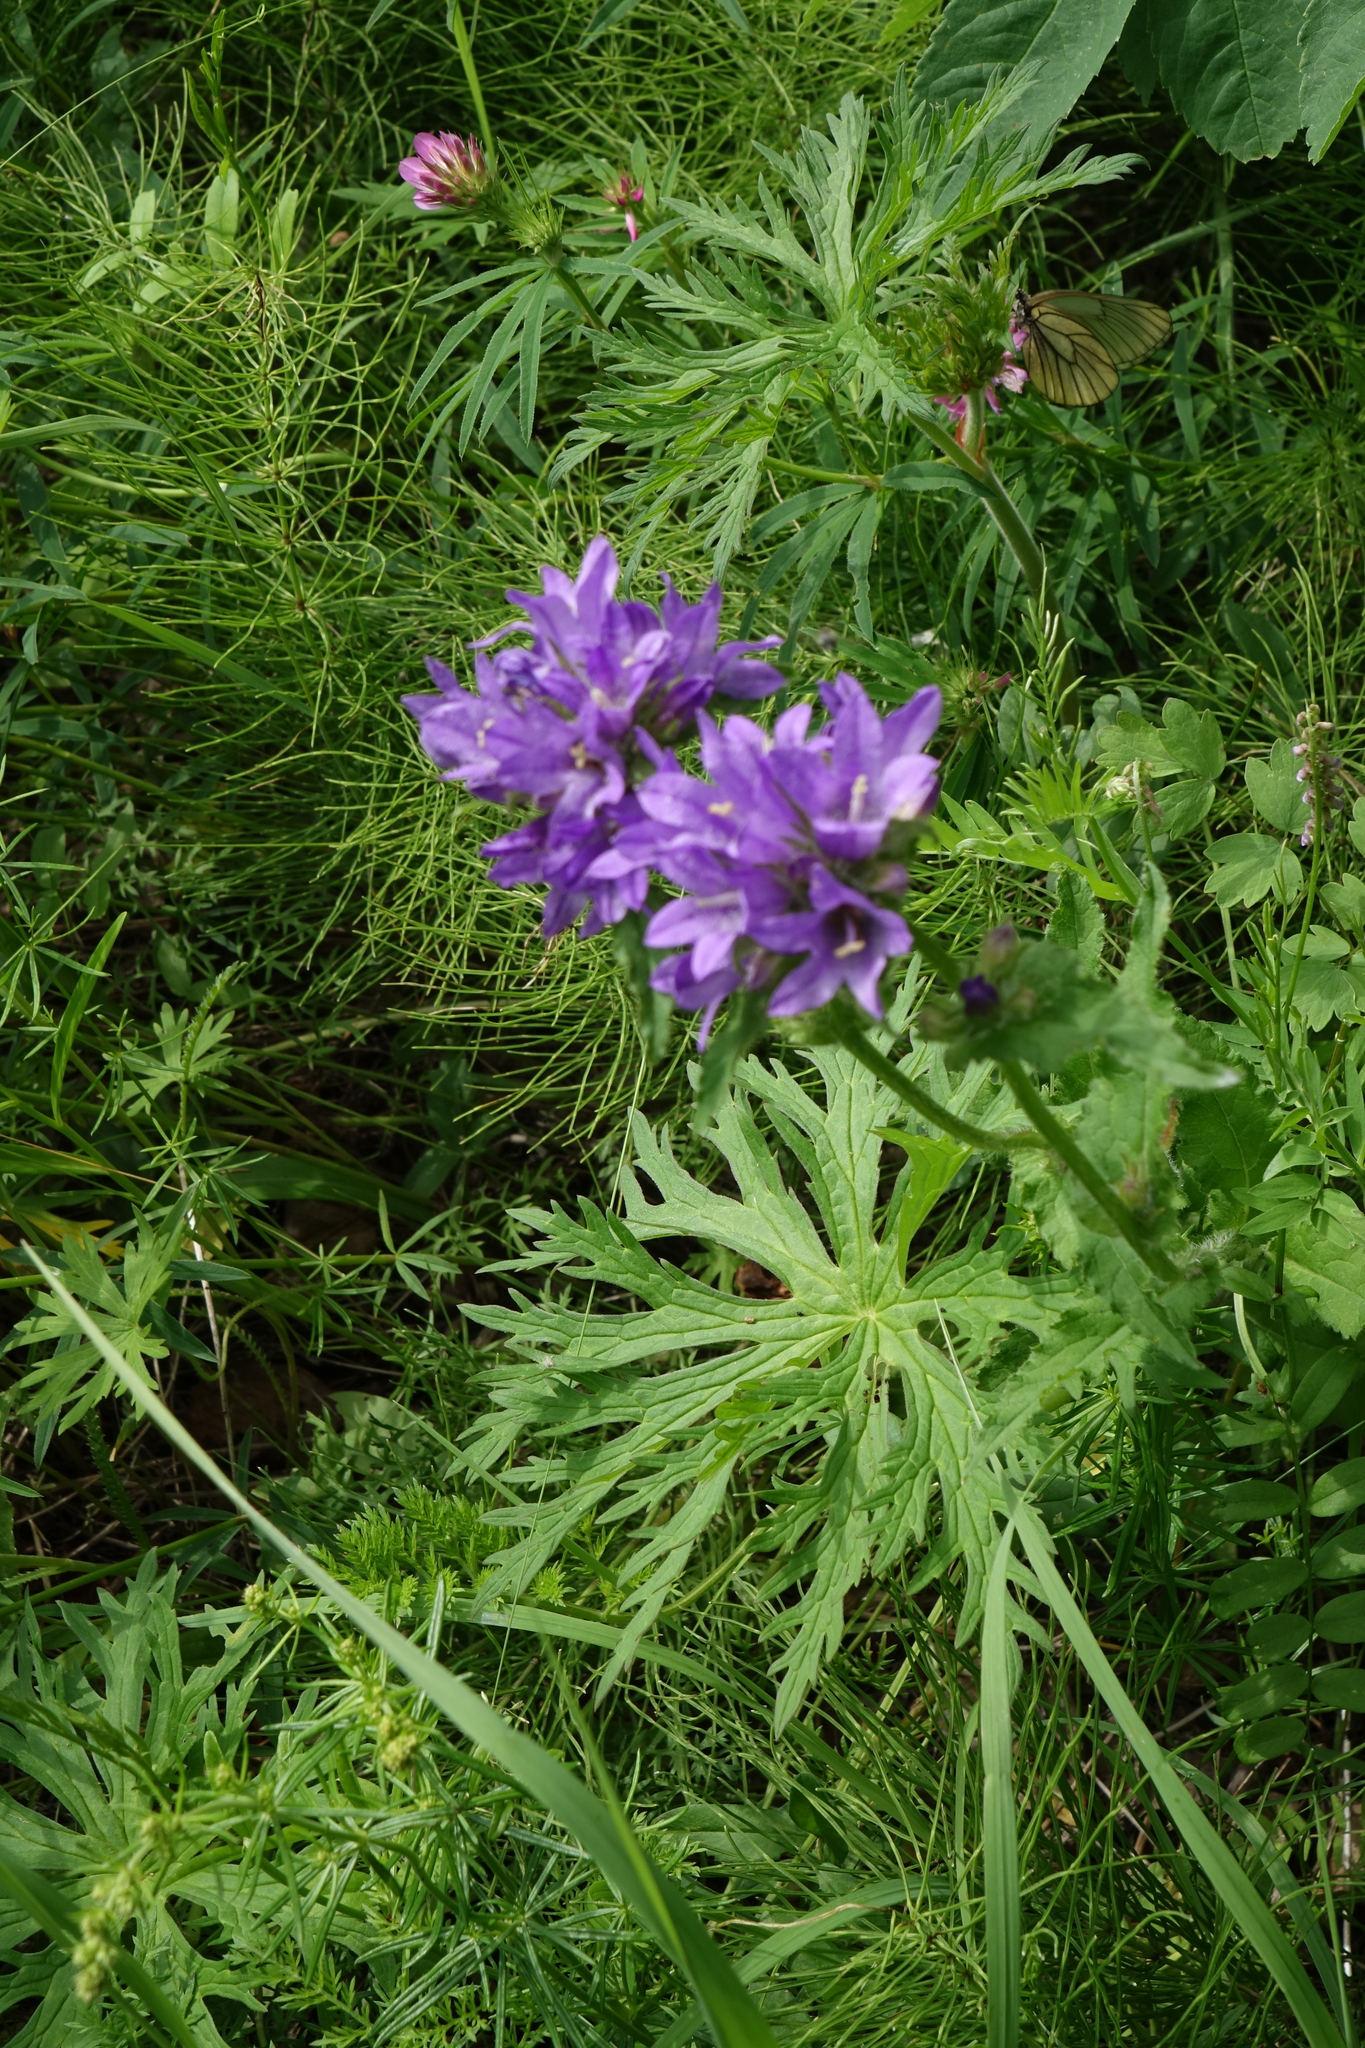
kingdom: Plantae
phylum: Tracheophyta
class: Magnoliopsida
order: Asterales
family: Campanulaceae
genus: Campanula
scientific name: Campanula glomerata
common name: Clustered bellflower
